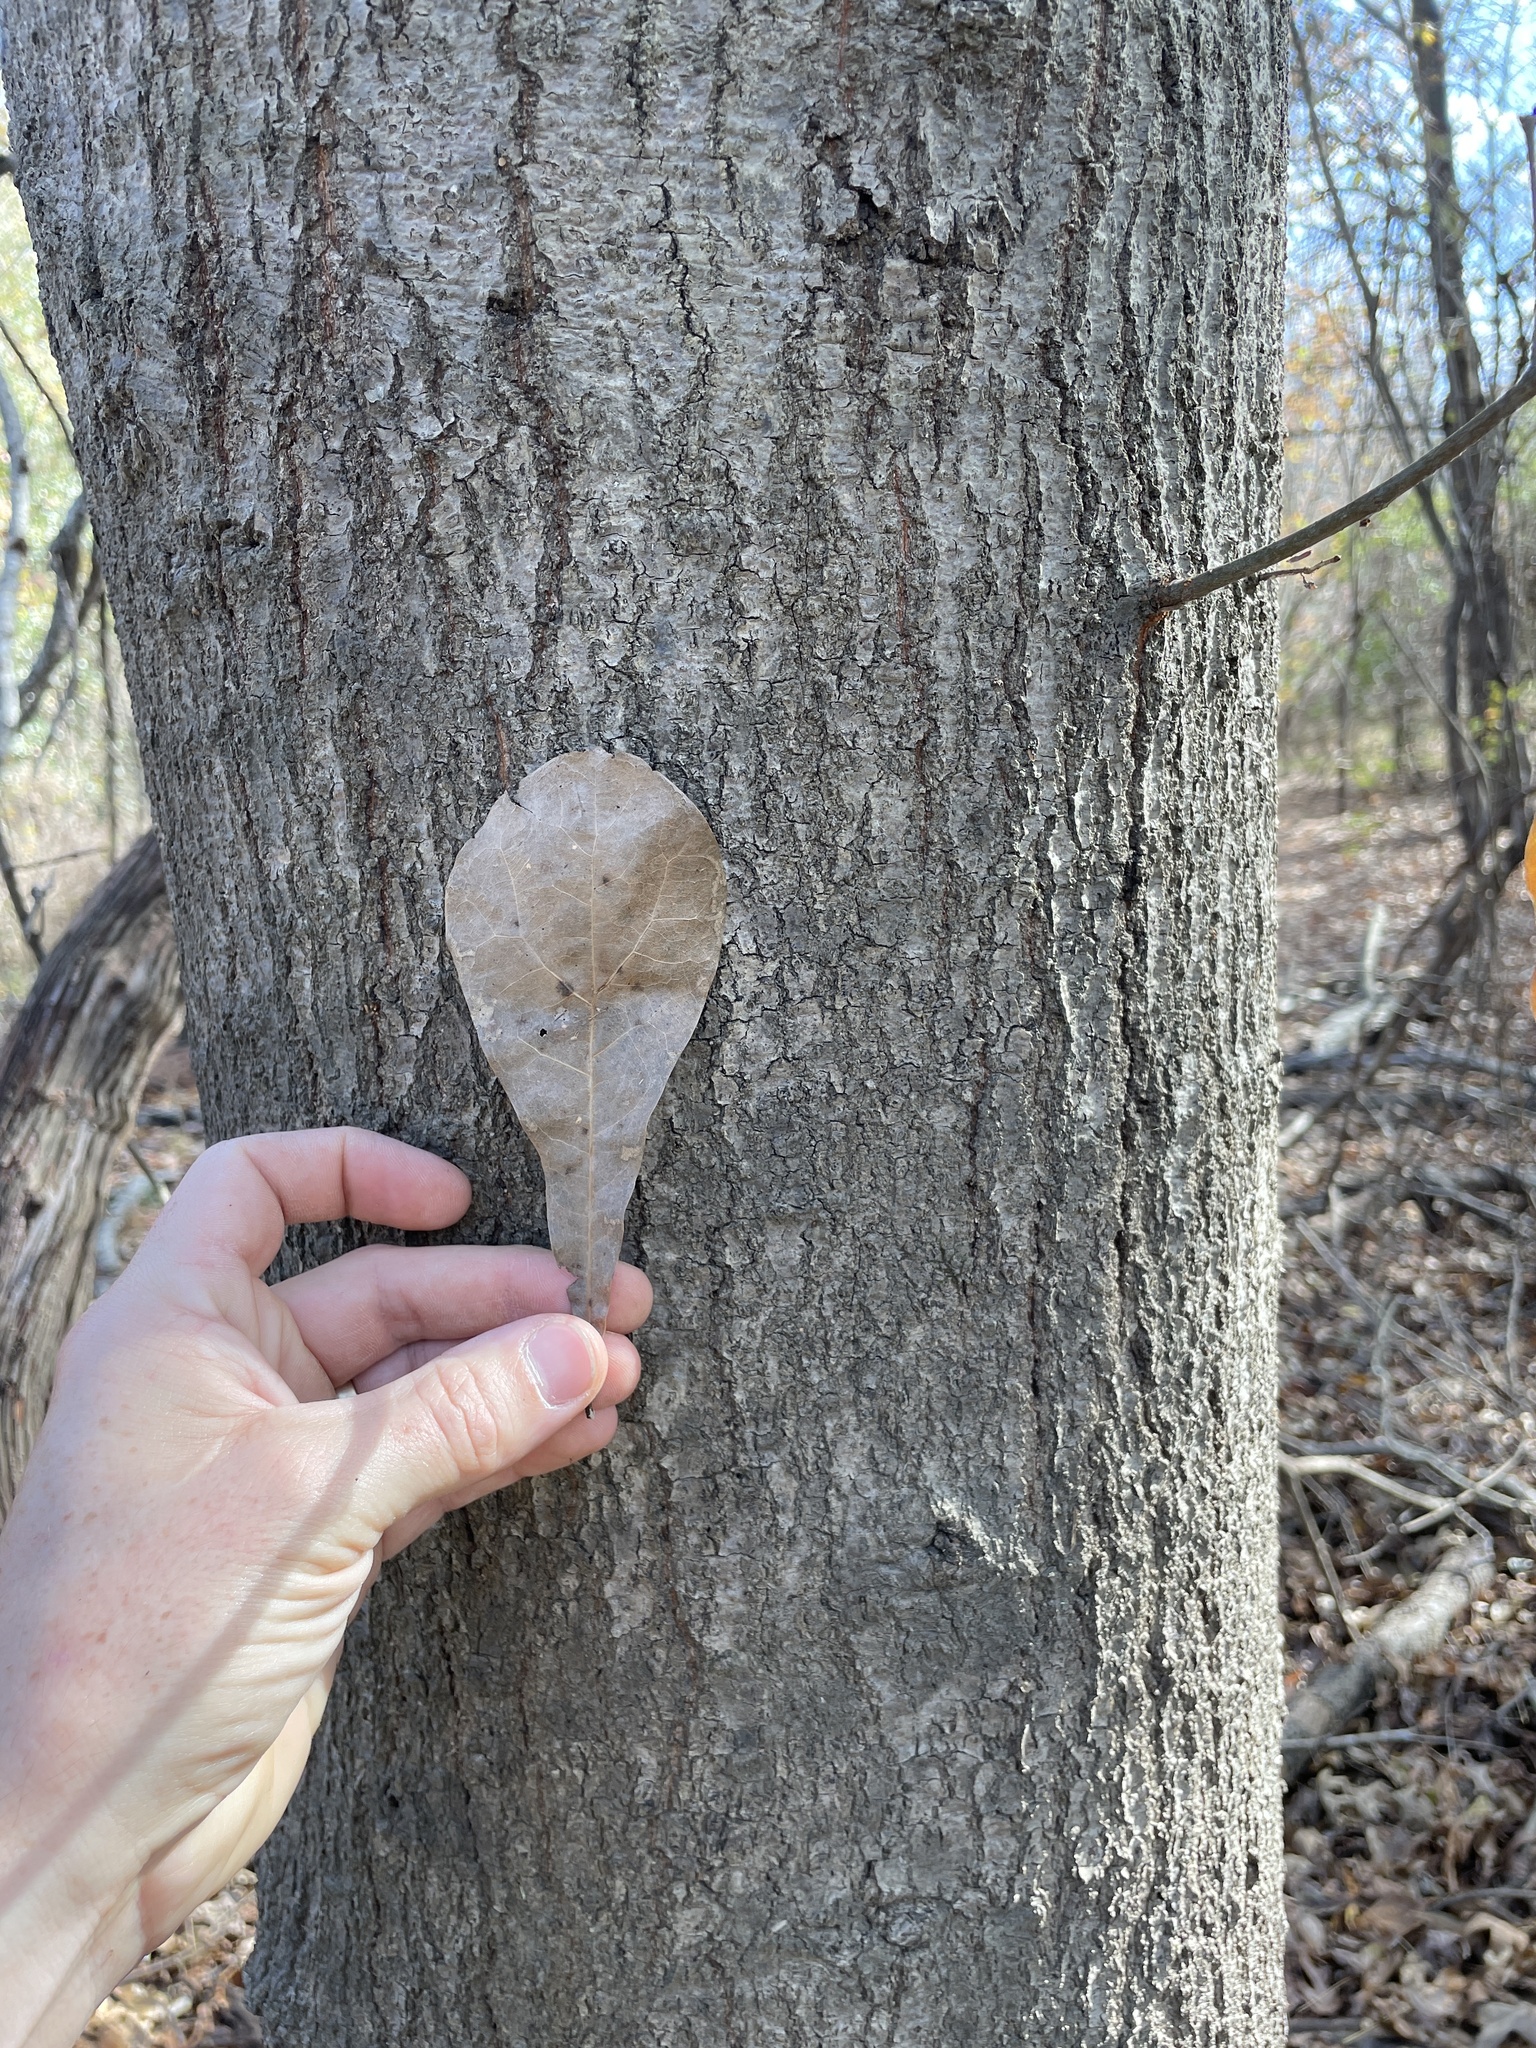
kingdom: Plantae
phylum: Tracheophyta
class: Magnoliopsida
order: Fagales
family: Fagaceae
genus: Quercus
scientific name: Quercus nigra
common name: Water oak
